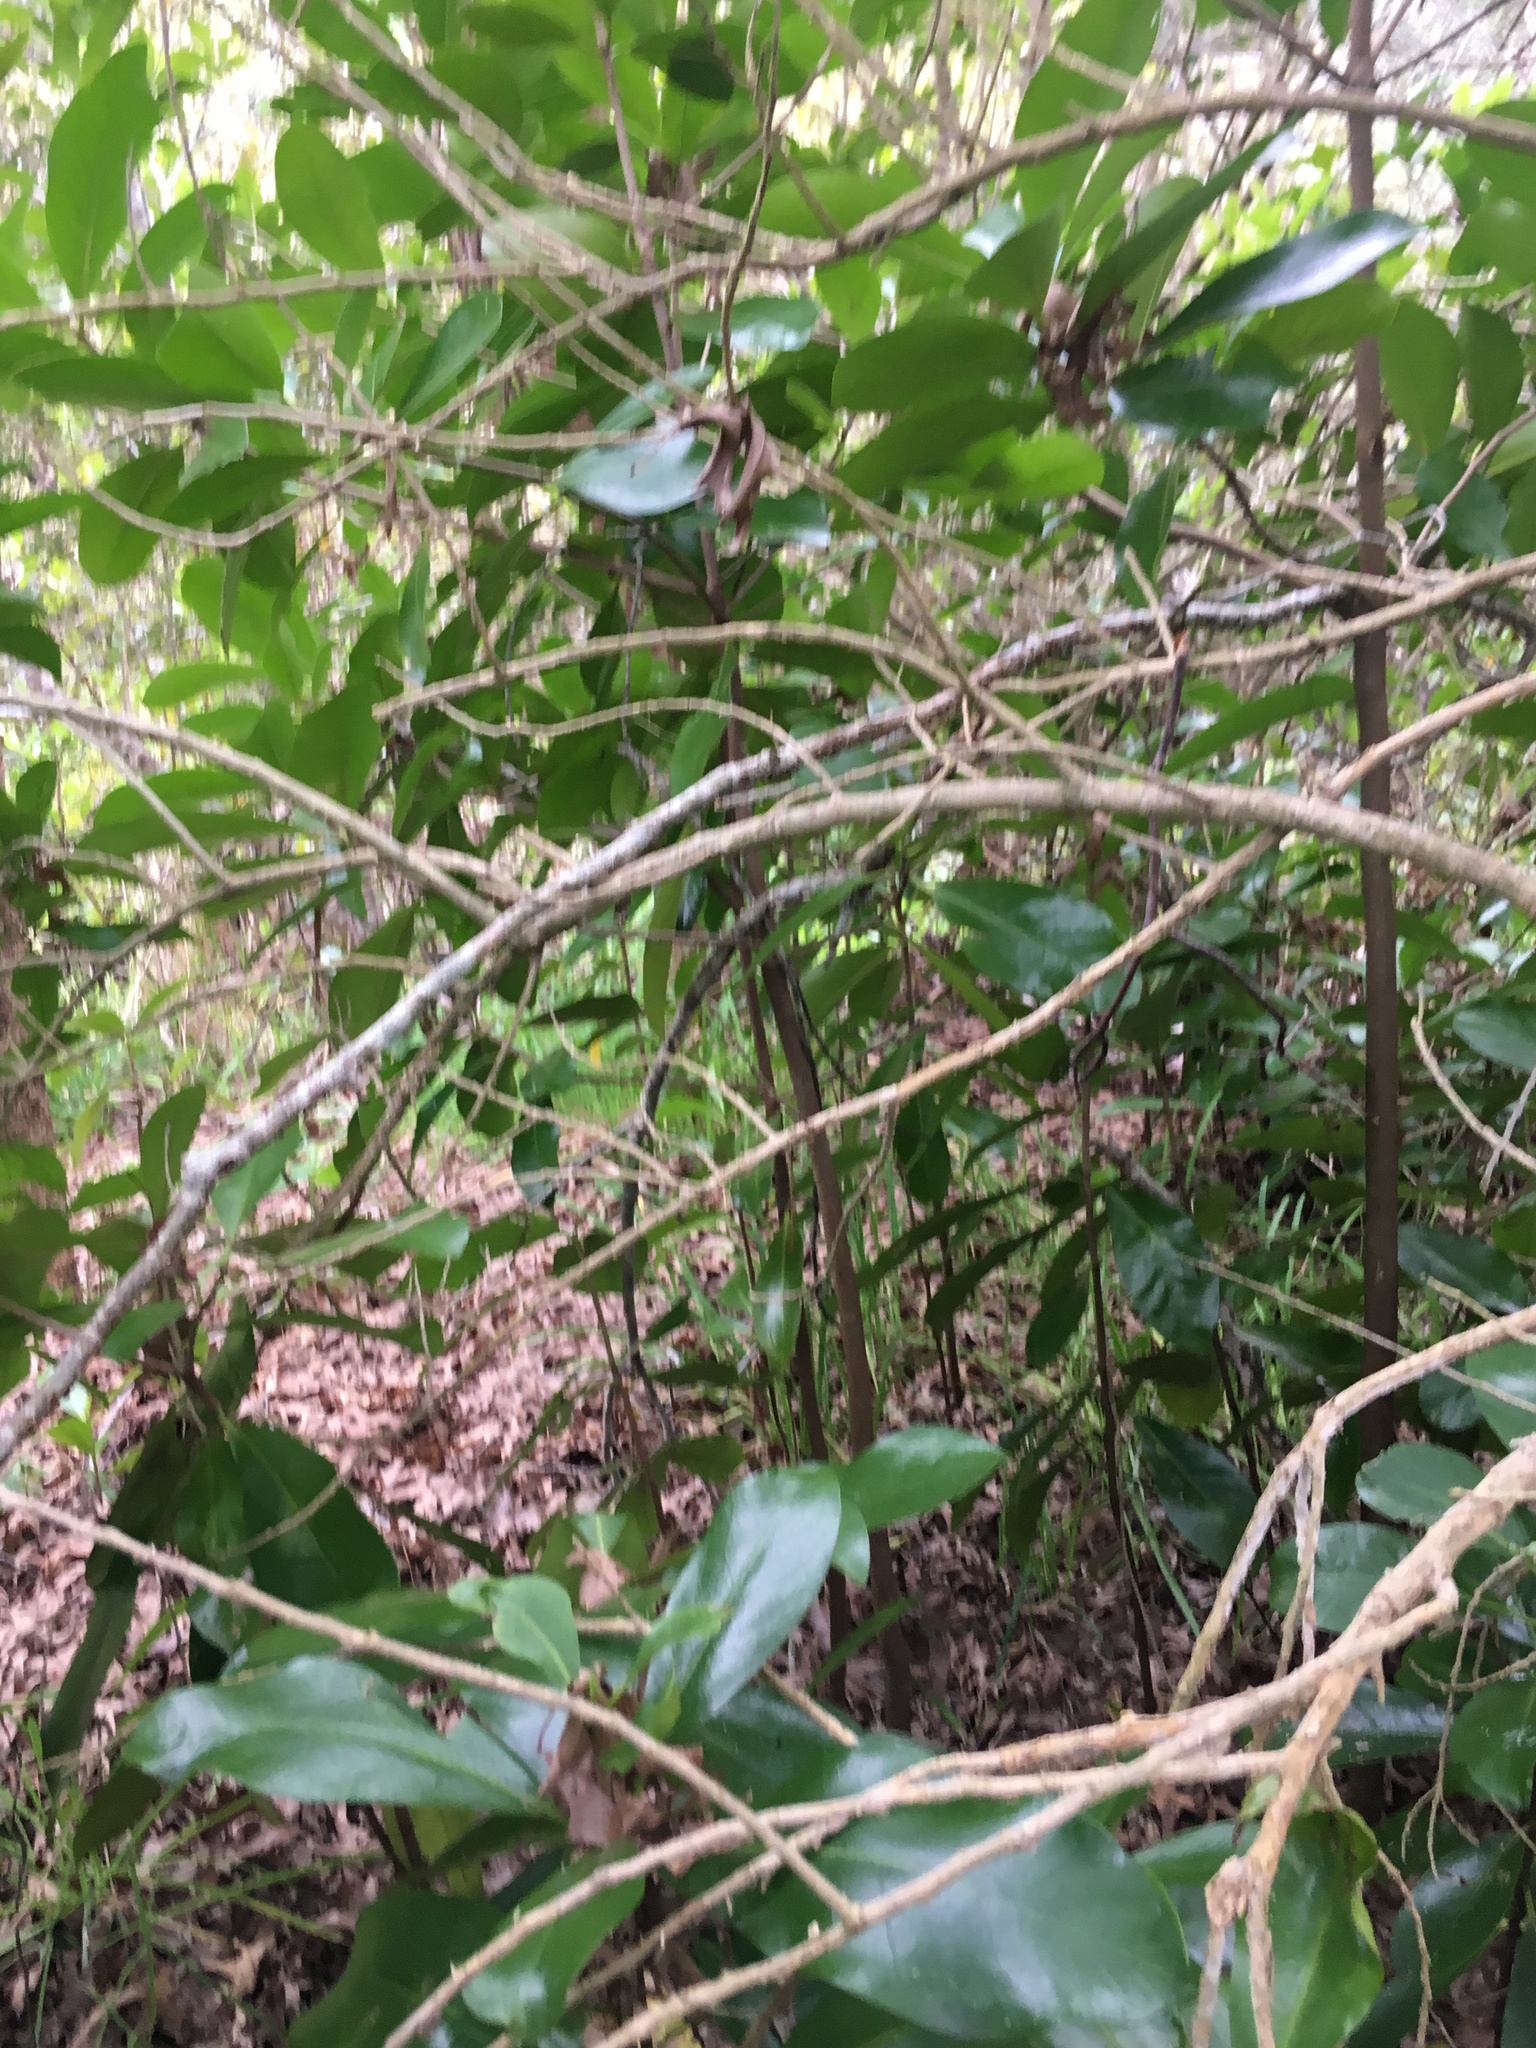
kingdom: Plantae
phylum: Tracheophyta
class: Magnoliopsida
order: Cucurbitales
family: Corynocarpaceae
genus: Corynocarpus
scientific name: Corynocarpus laevigatus
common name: New zealand laurel
